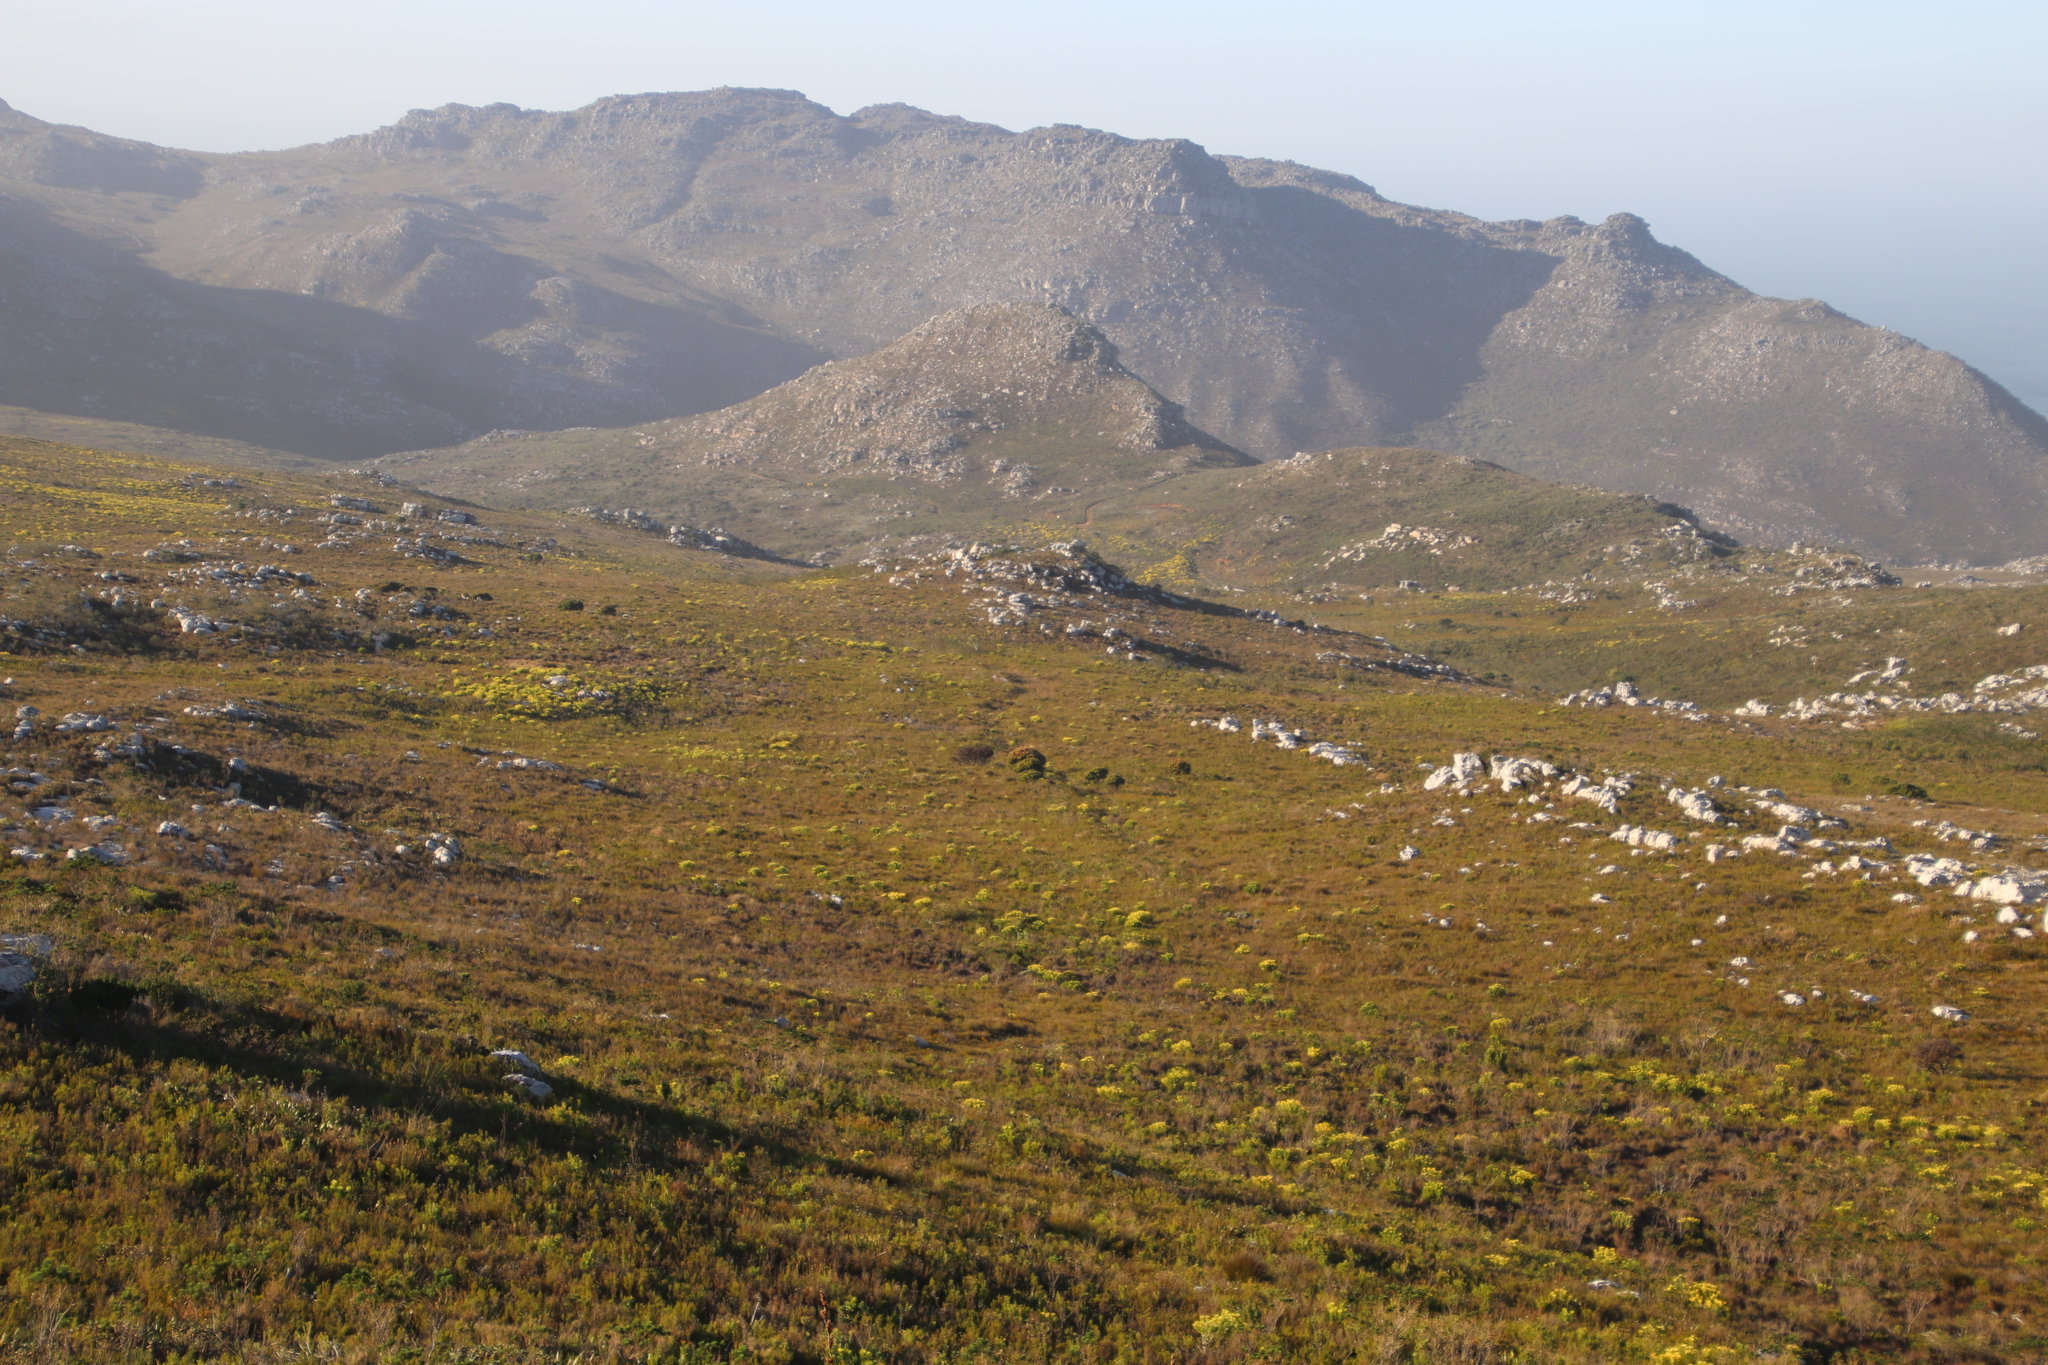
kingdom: Plantae
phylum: Tracheophyta
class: Magnoliopsida
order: Proteales
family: Proteaceae
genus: Mimetes
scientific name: Mimetes fimbriifolius
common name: Fringed bottlebrush
